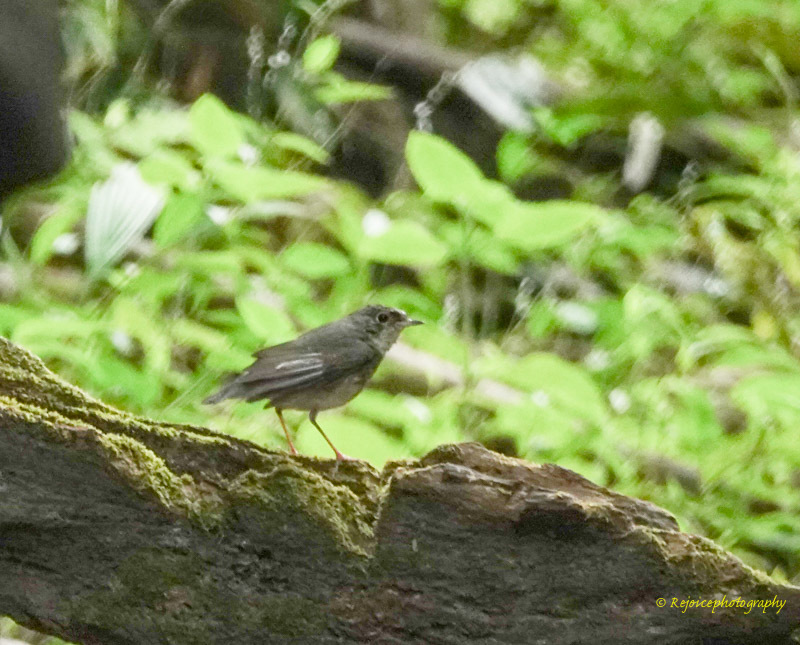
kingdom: Animalia
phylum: Chordata
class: Aves
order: Passeriformes
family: Muscicapidae
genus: Luscinia
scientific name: Luscinia cyane
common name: Siberian blue robin
